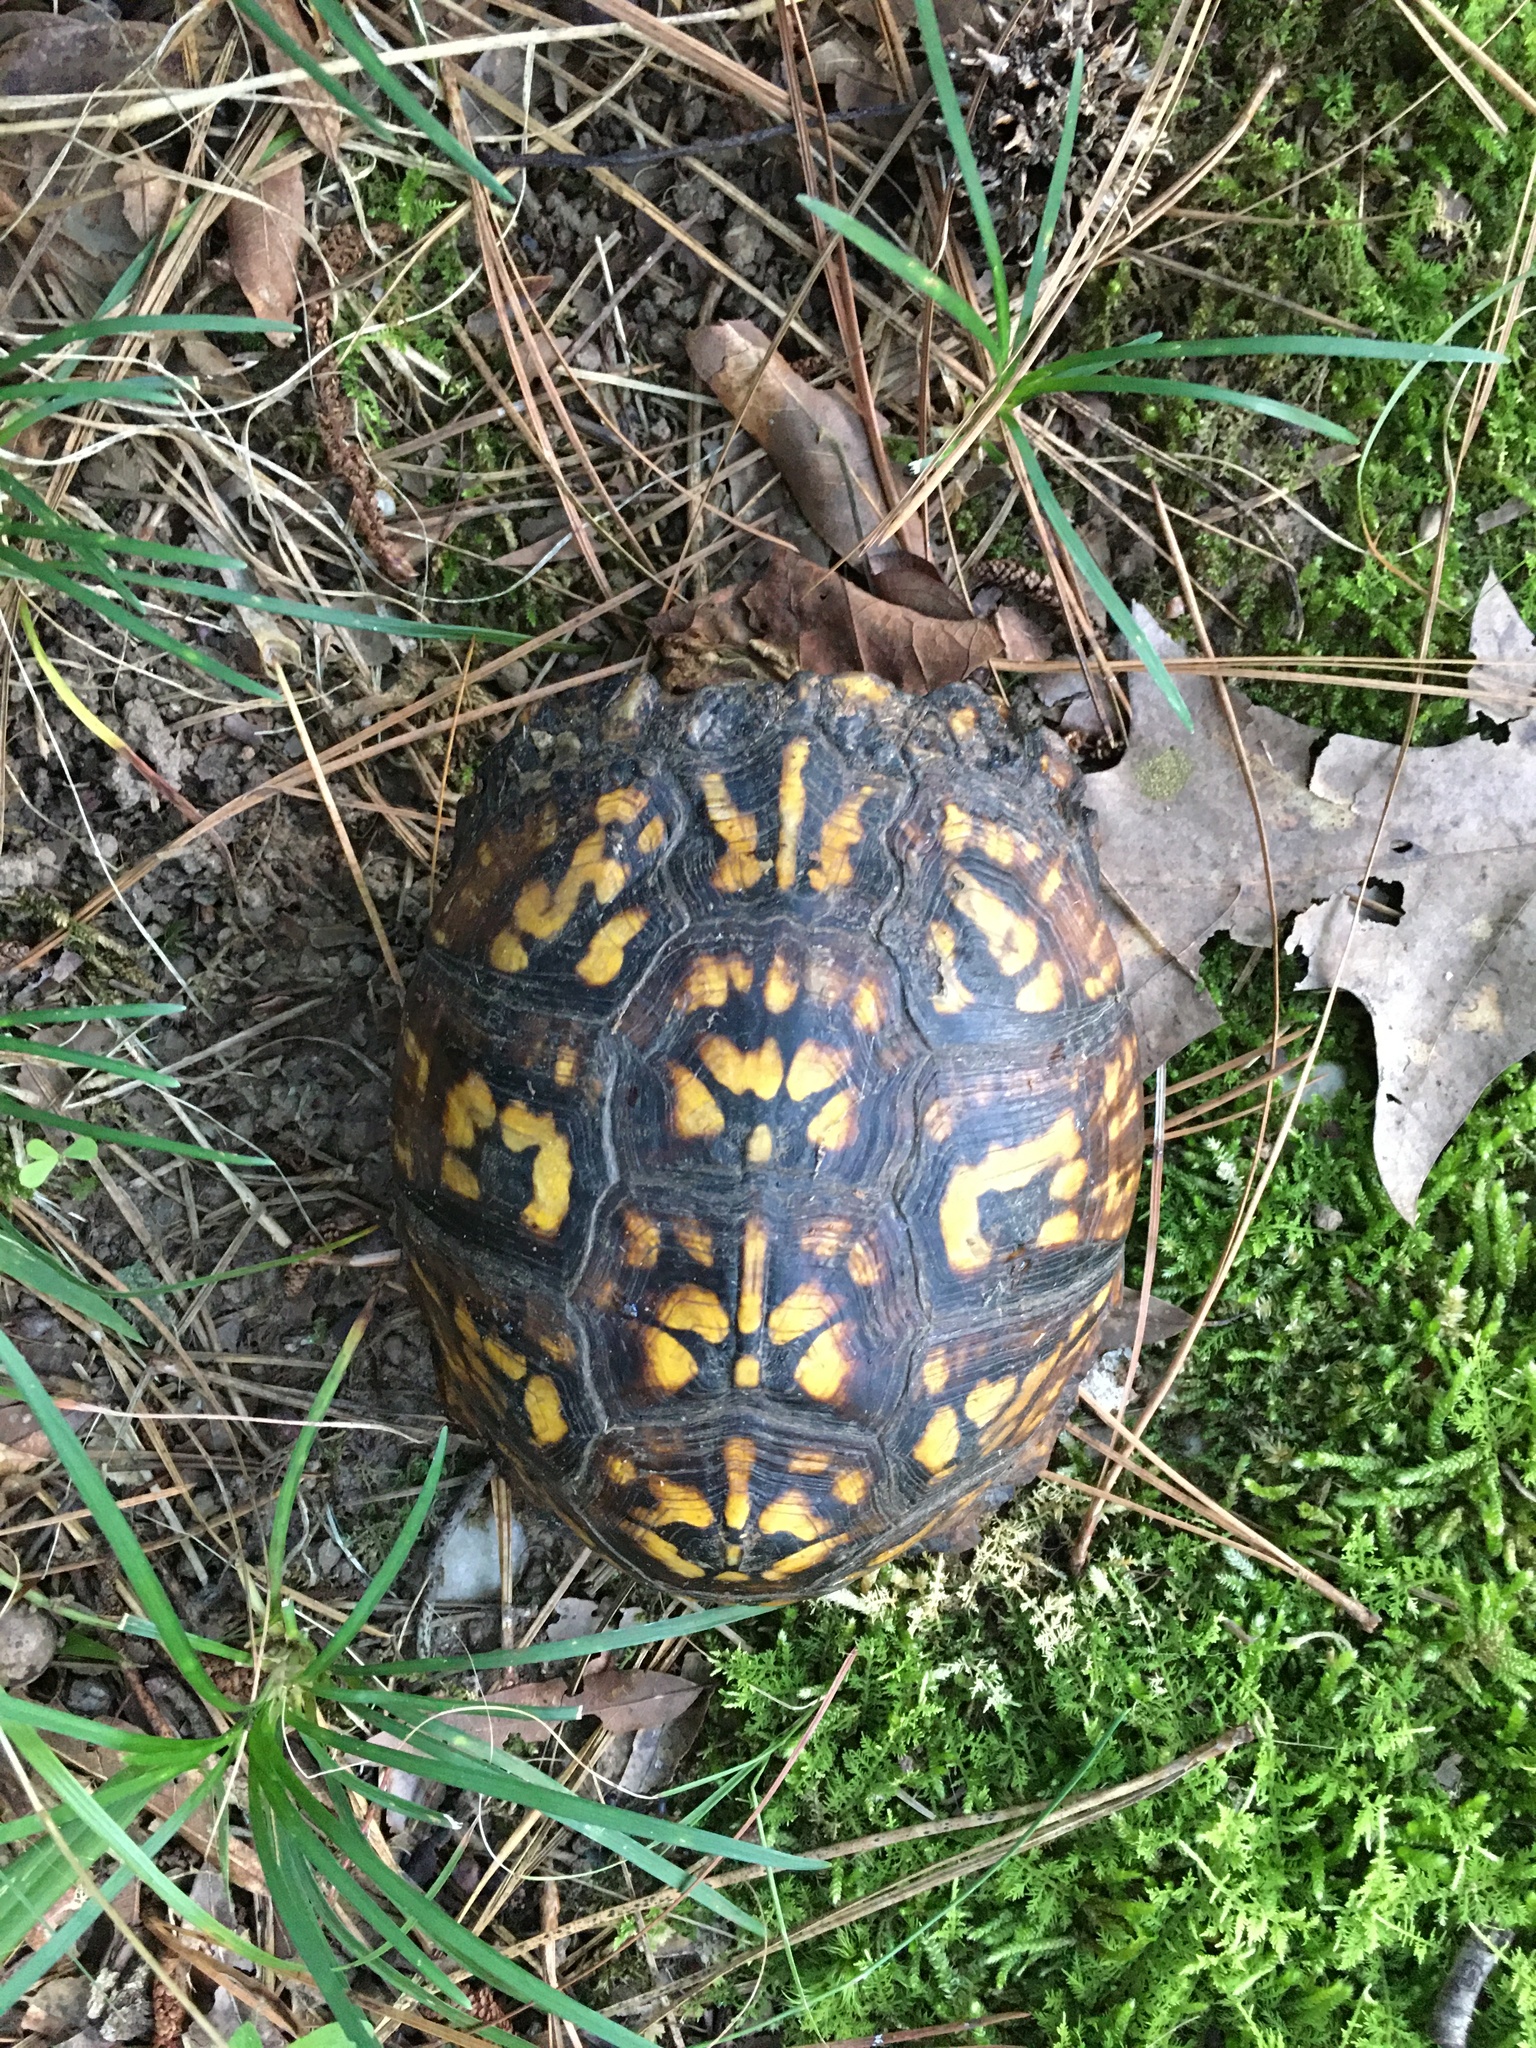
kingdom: Animalia
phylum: Chordata
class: Testudines
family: Emydidae
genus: Terrapene
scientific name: Terrapene carolina
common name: Common box turtle
